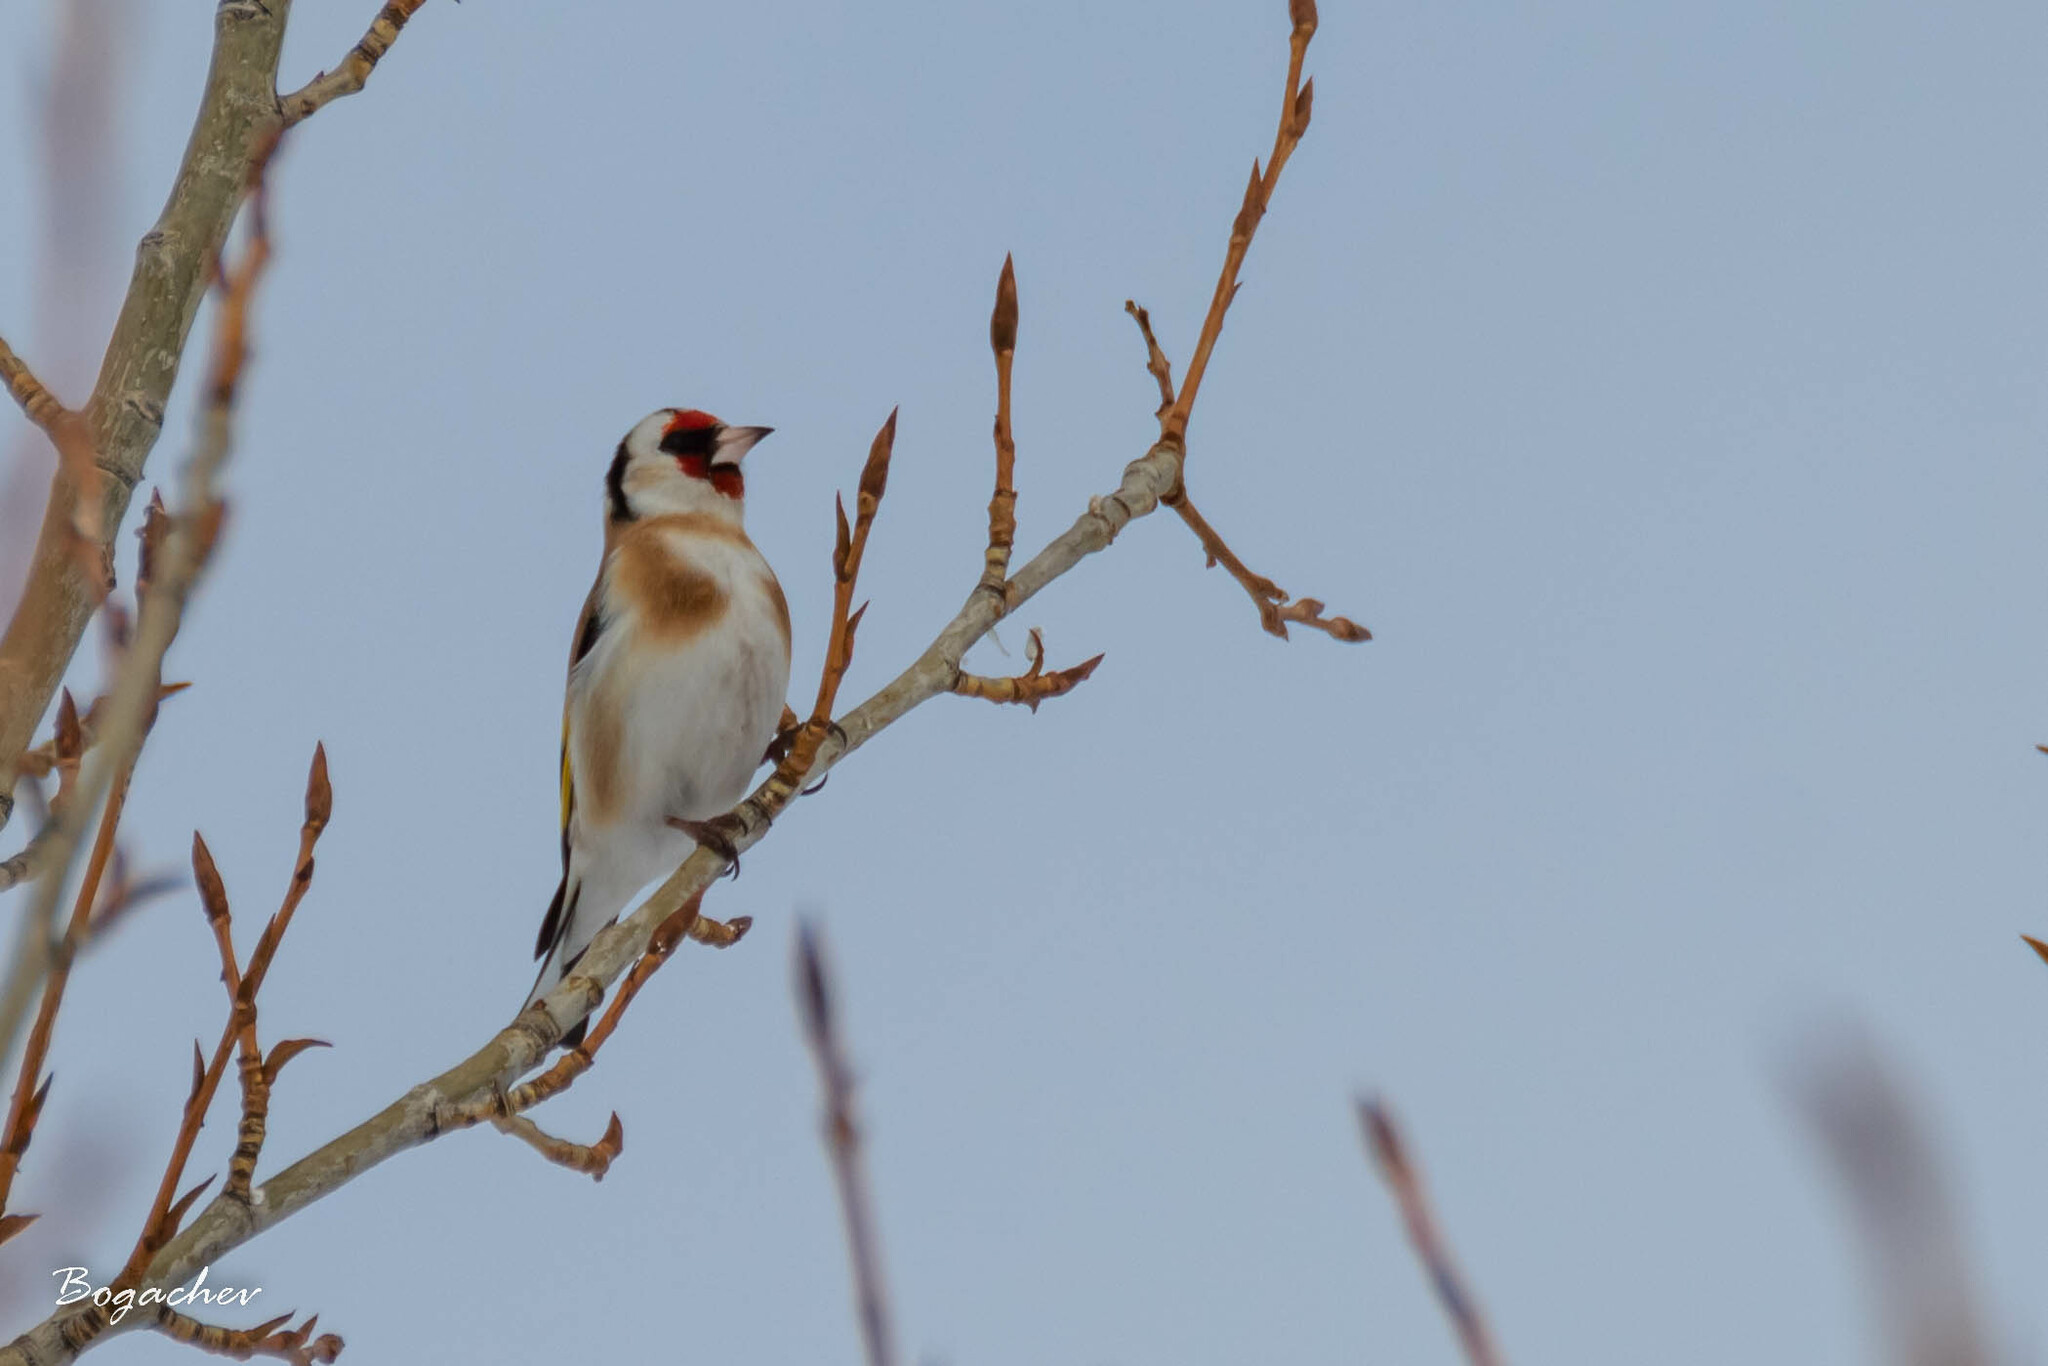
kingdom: Animalia
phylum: Chordata
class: Aves
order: Passeriformes
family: Fringillidae
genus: Carduelis
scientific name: Carduelis carduelis
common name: European goldfinch
